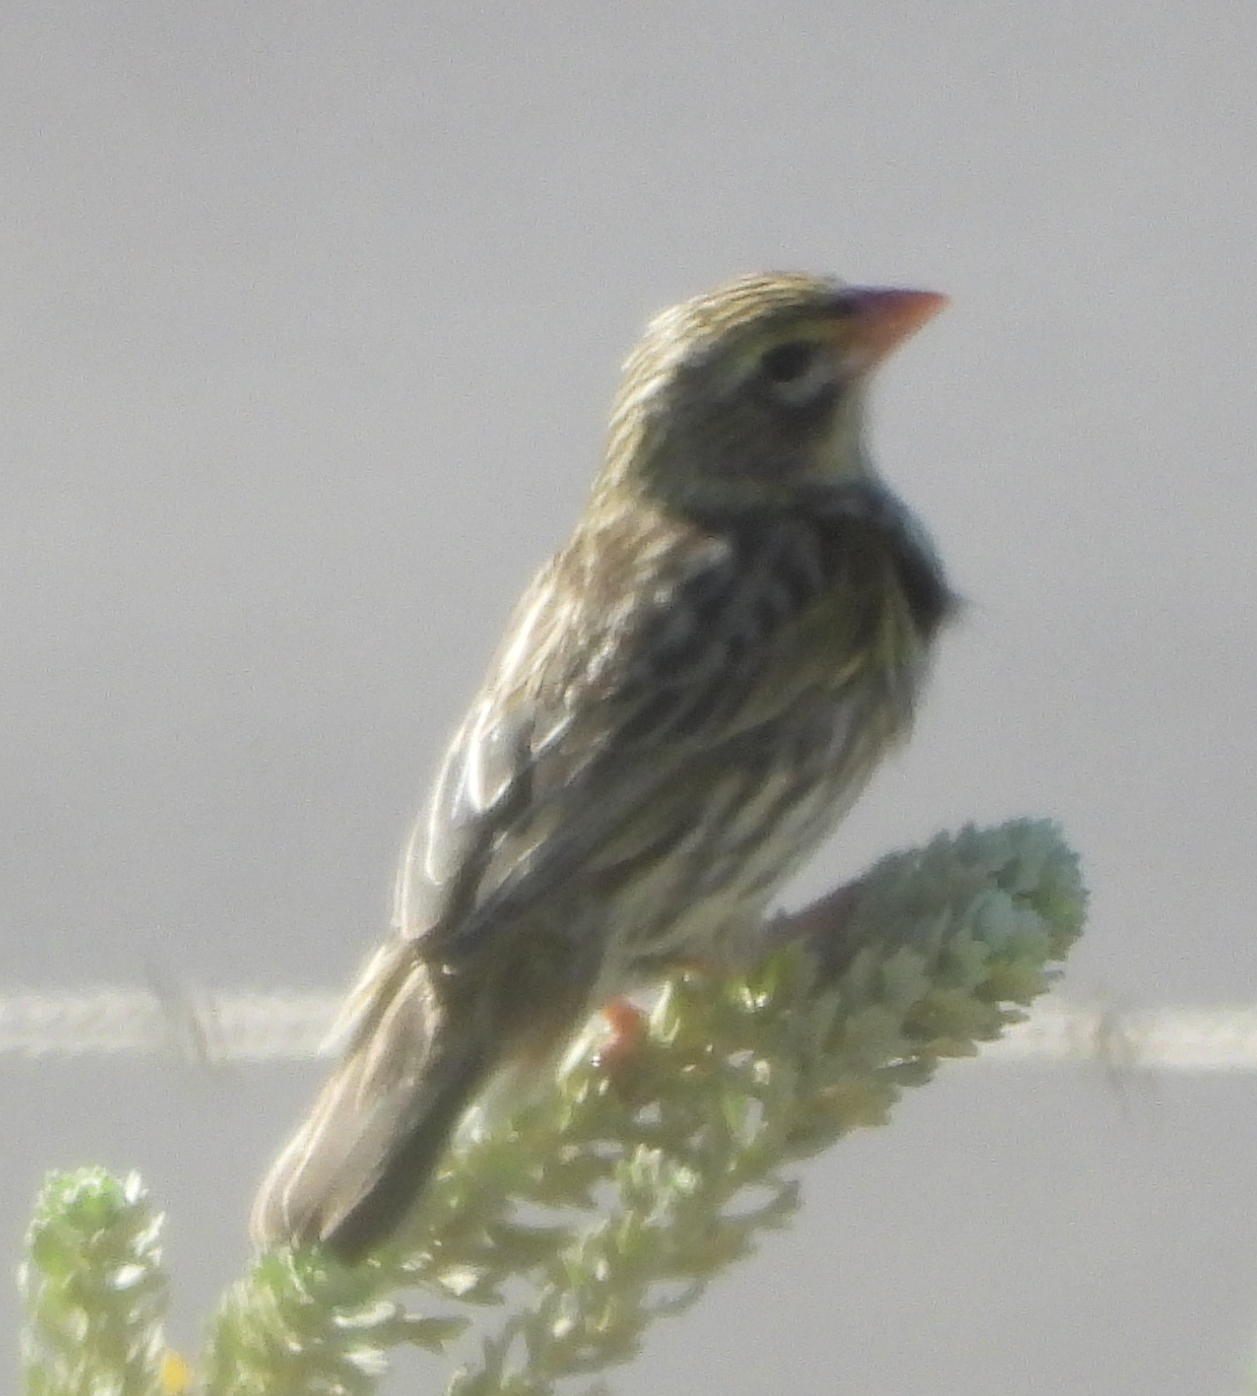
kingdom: Animalia
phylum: Chordata
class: Aves
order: Passeriformes
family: Ploceidae
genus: Euplectes
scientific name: Euplectes capensis
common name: Yellow bishop
